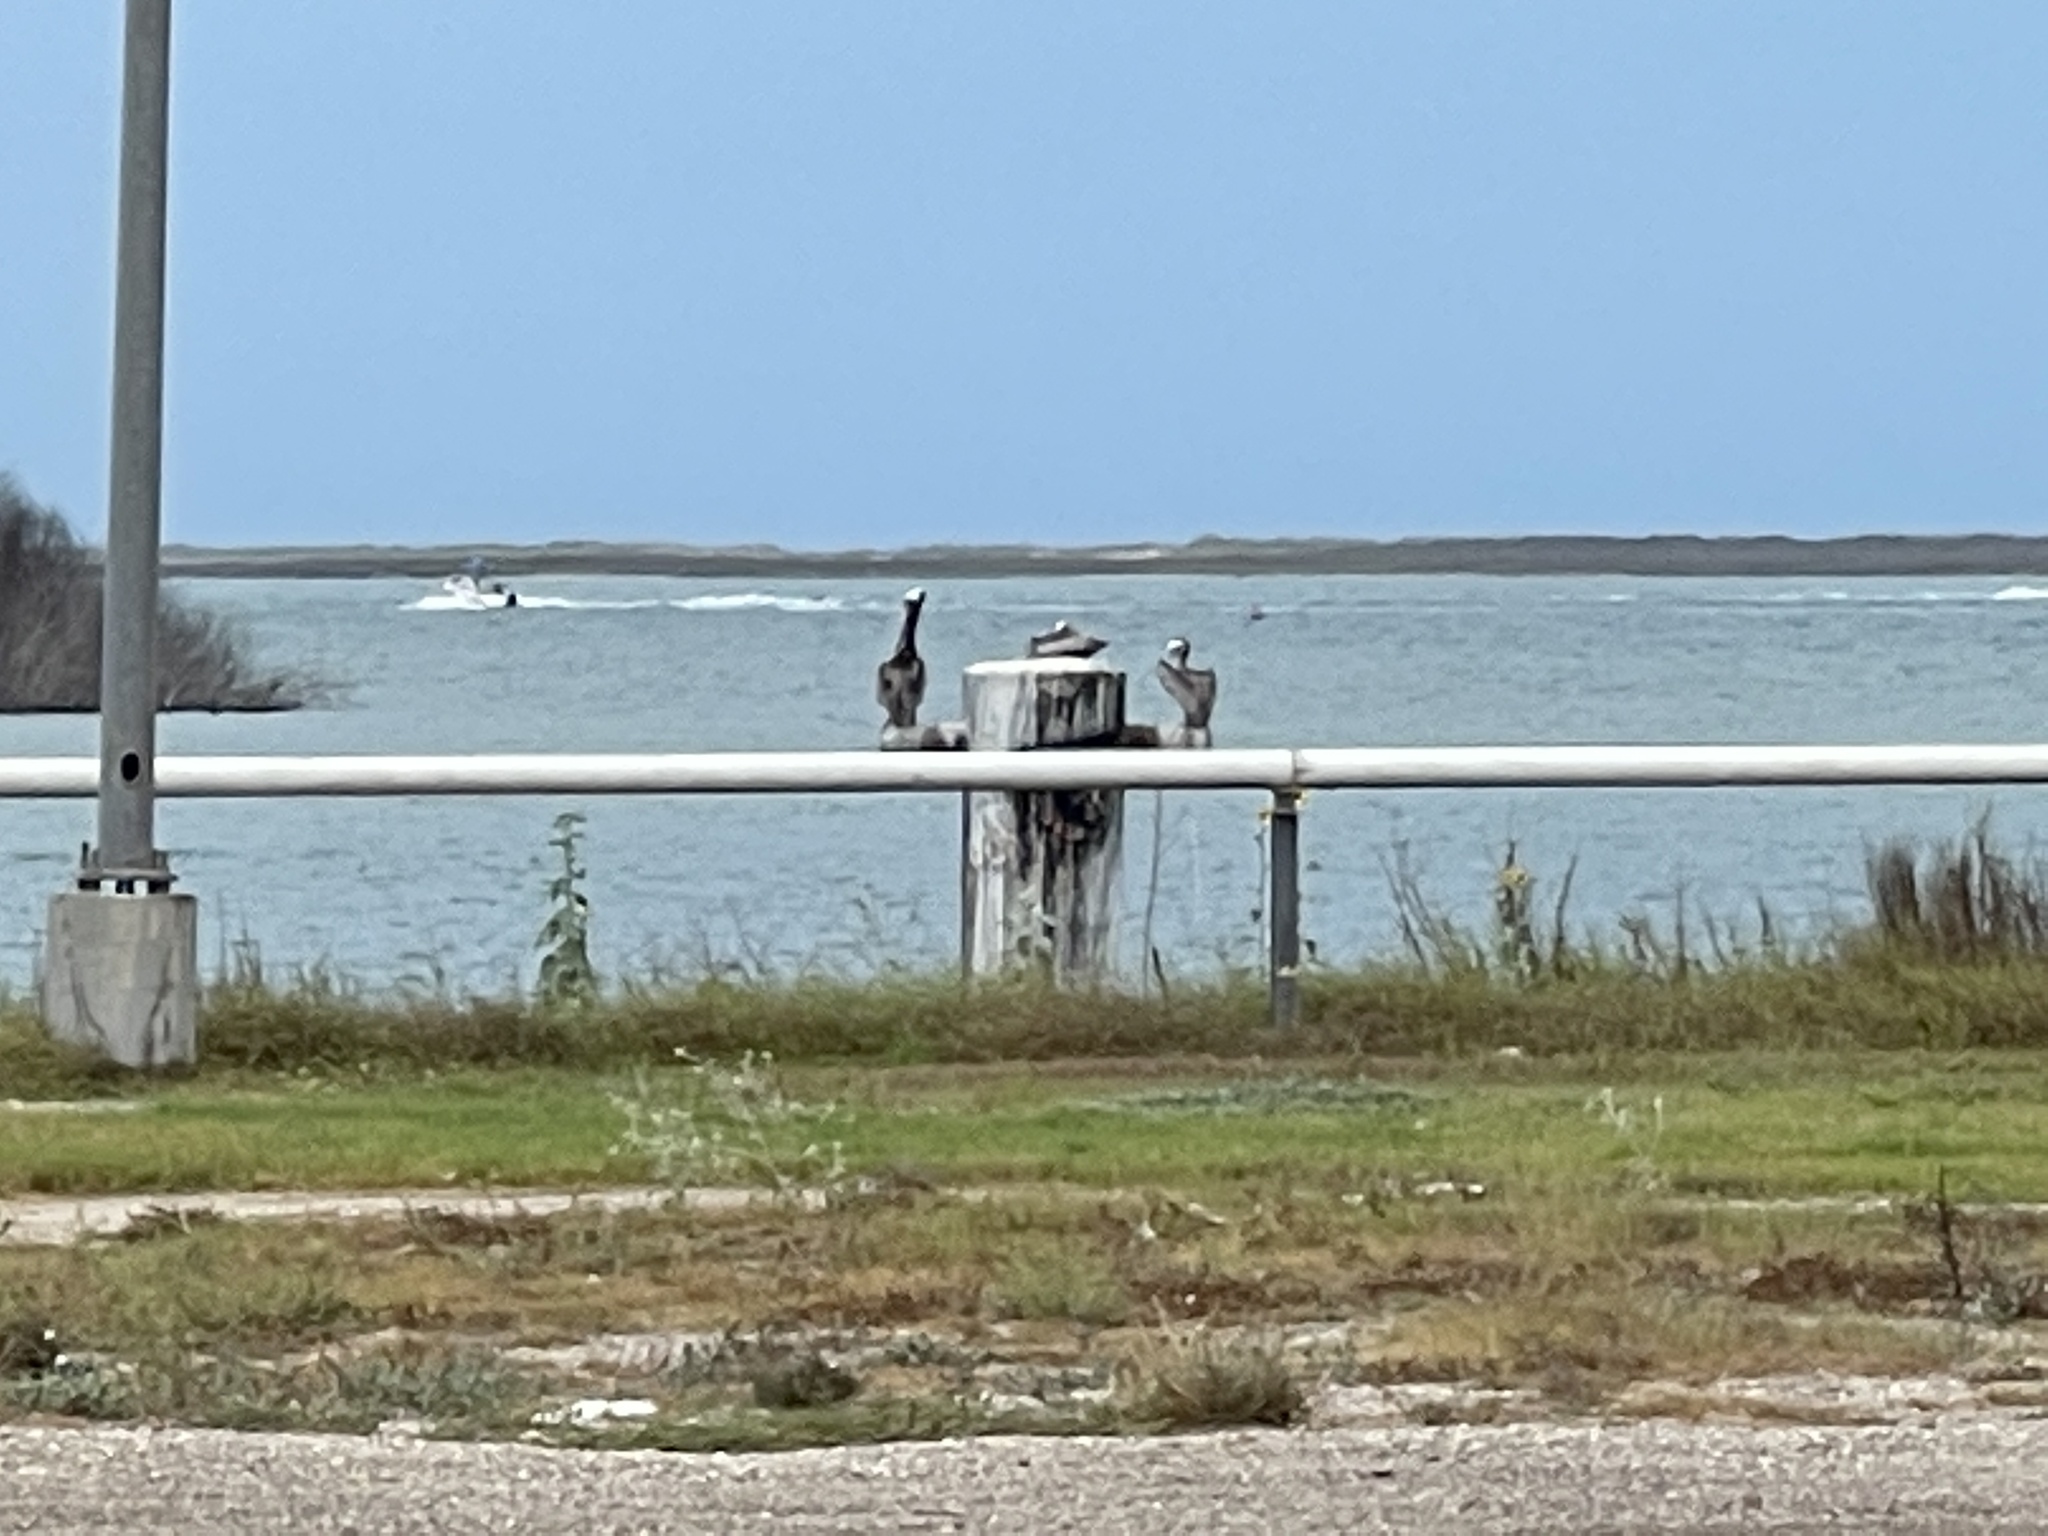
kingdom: Animalia
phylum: Chordata
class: Aves
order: Pelecaniformes
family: Pelecanidae
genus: Pelecanus
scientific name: Pelecanus occidentalis
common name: Brown pelican
